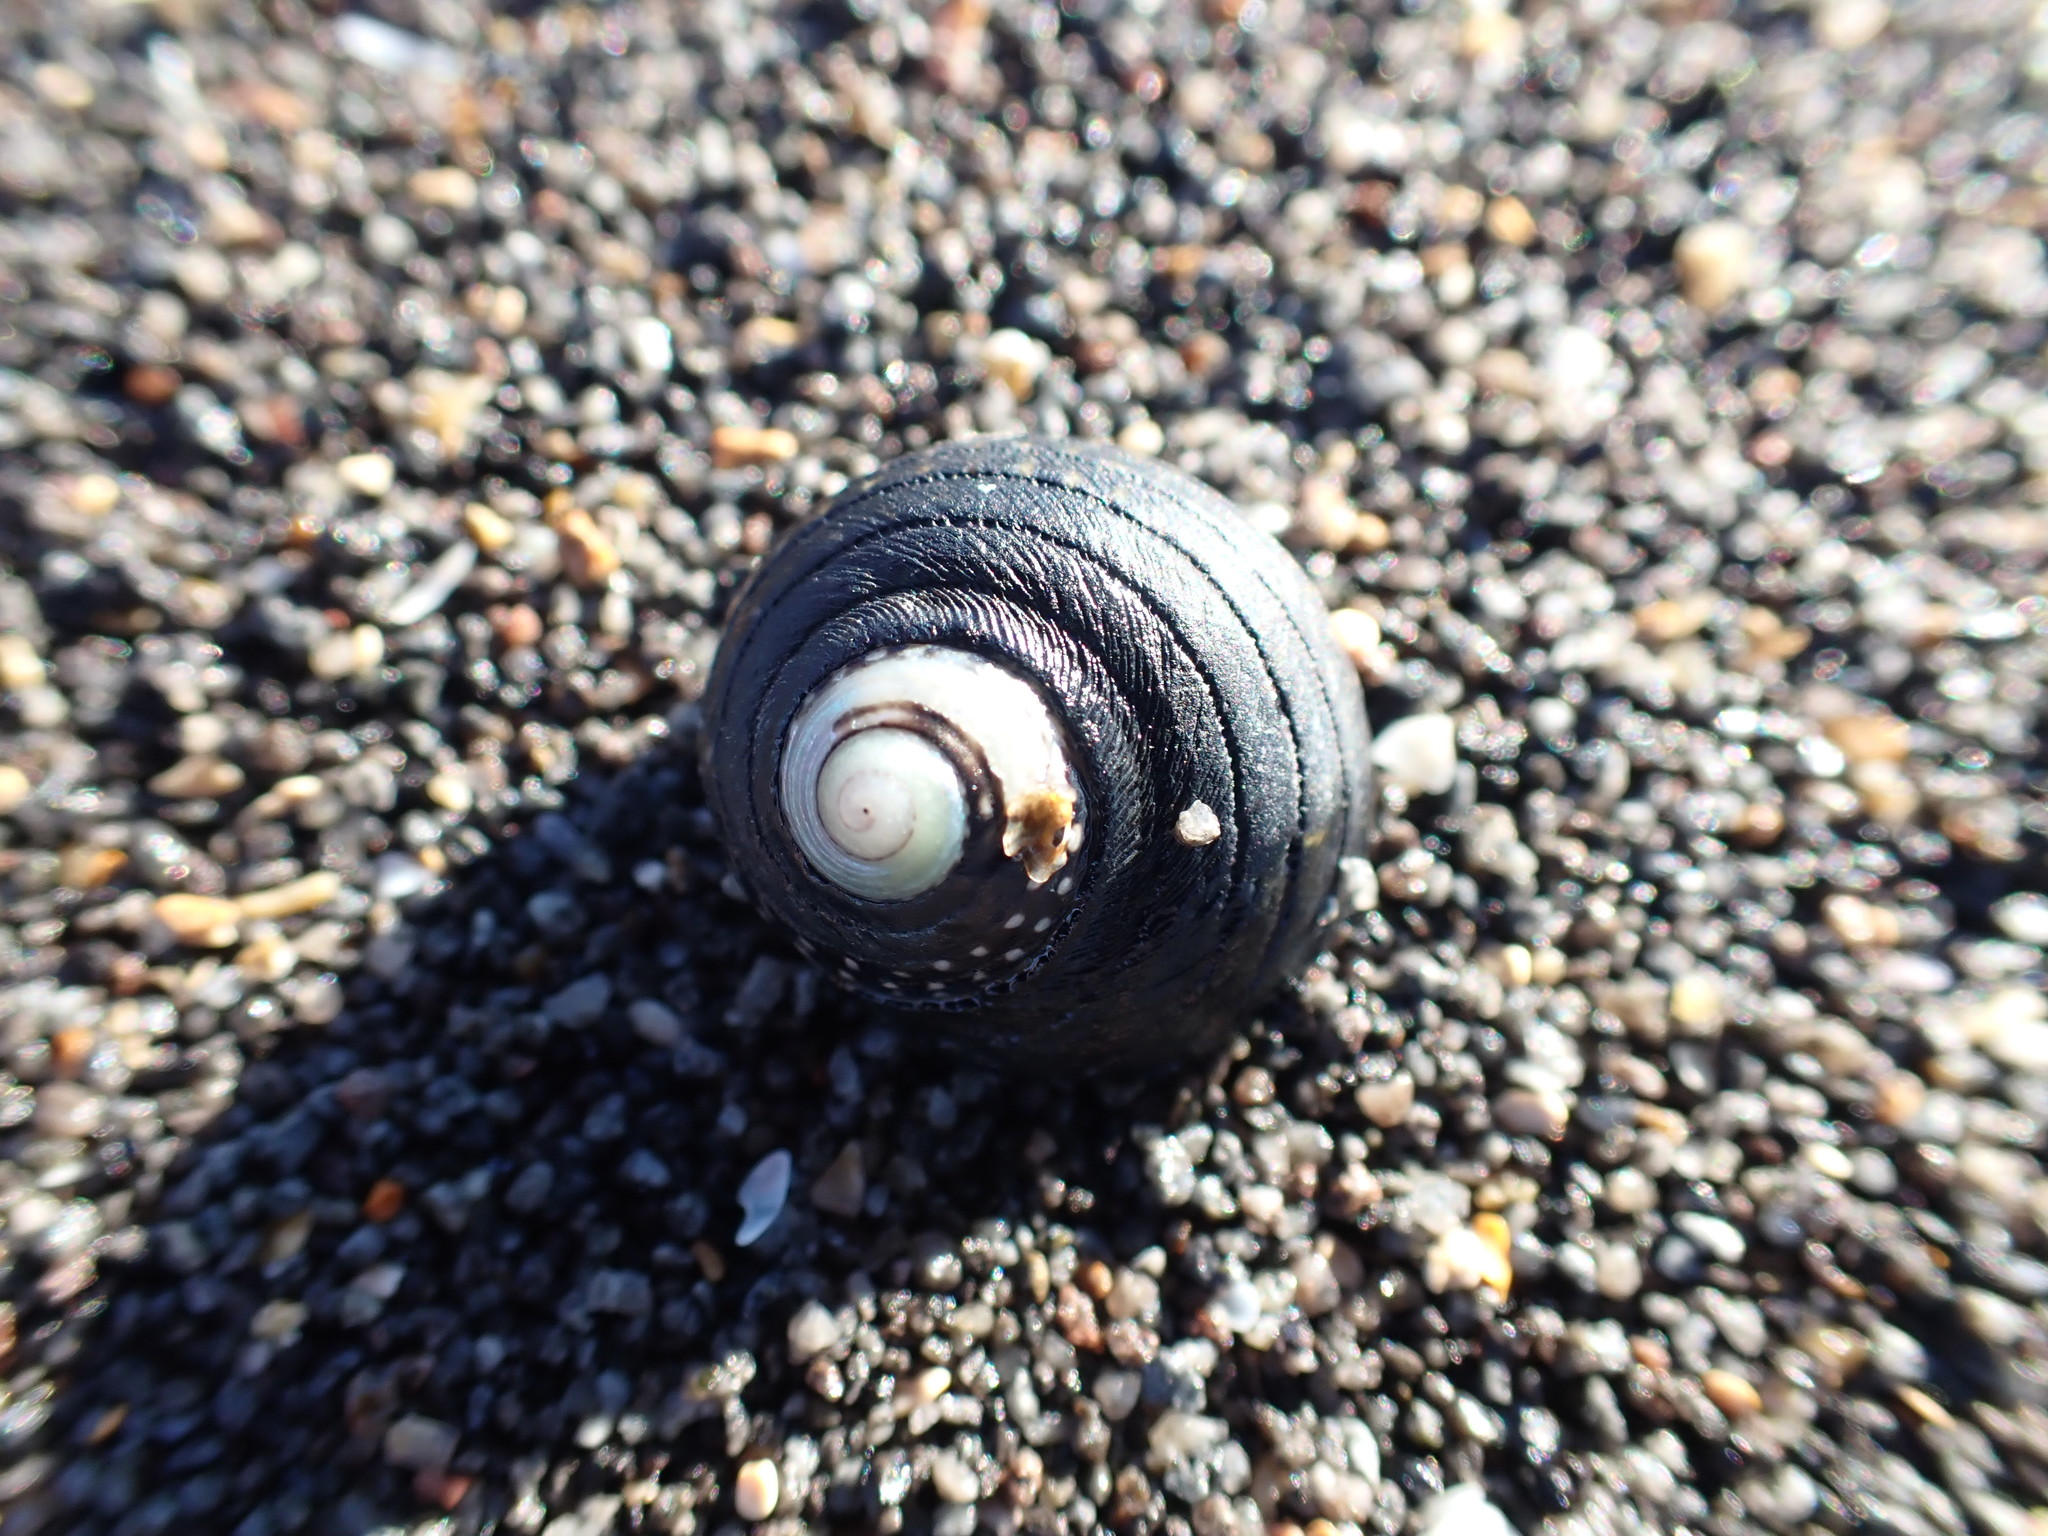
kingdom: Animalia
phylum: Mollusca
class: Gastropoda
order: Trochida
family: Trochidae
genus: Diloma
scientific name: Diloma aethiops
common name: Scorched monodont
